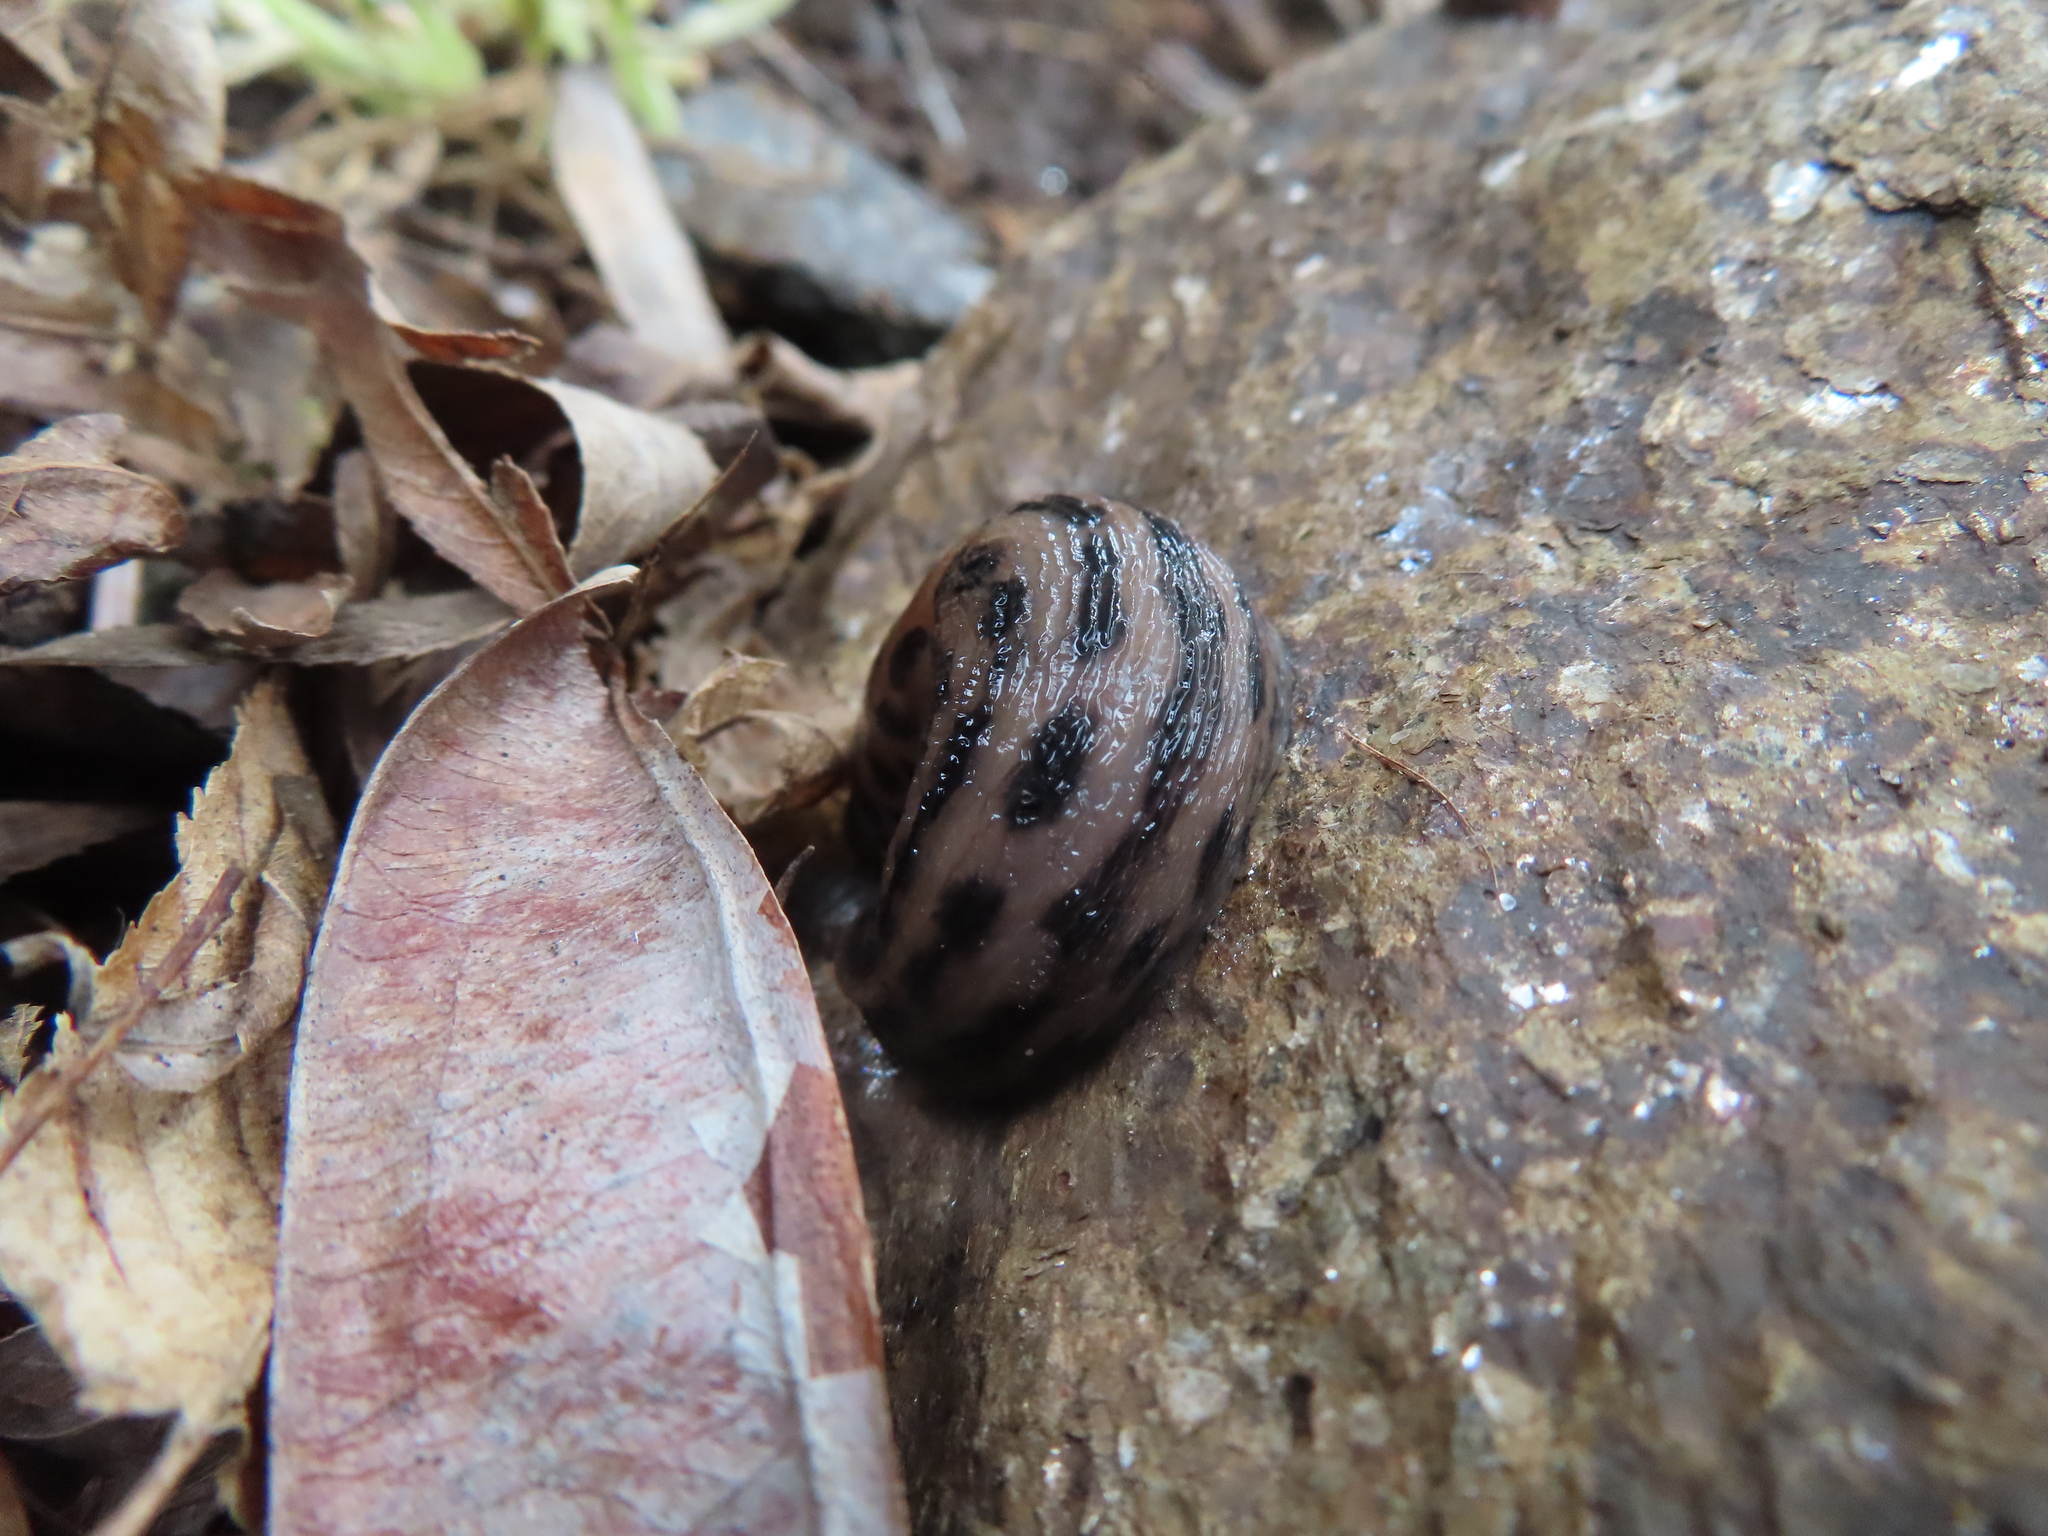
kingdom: Animalia
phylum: Mollusca
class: Gastropoda
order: Stylommatophora
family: Limacidae
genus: Limax
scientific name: Limax maximus
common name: Great grey slug
